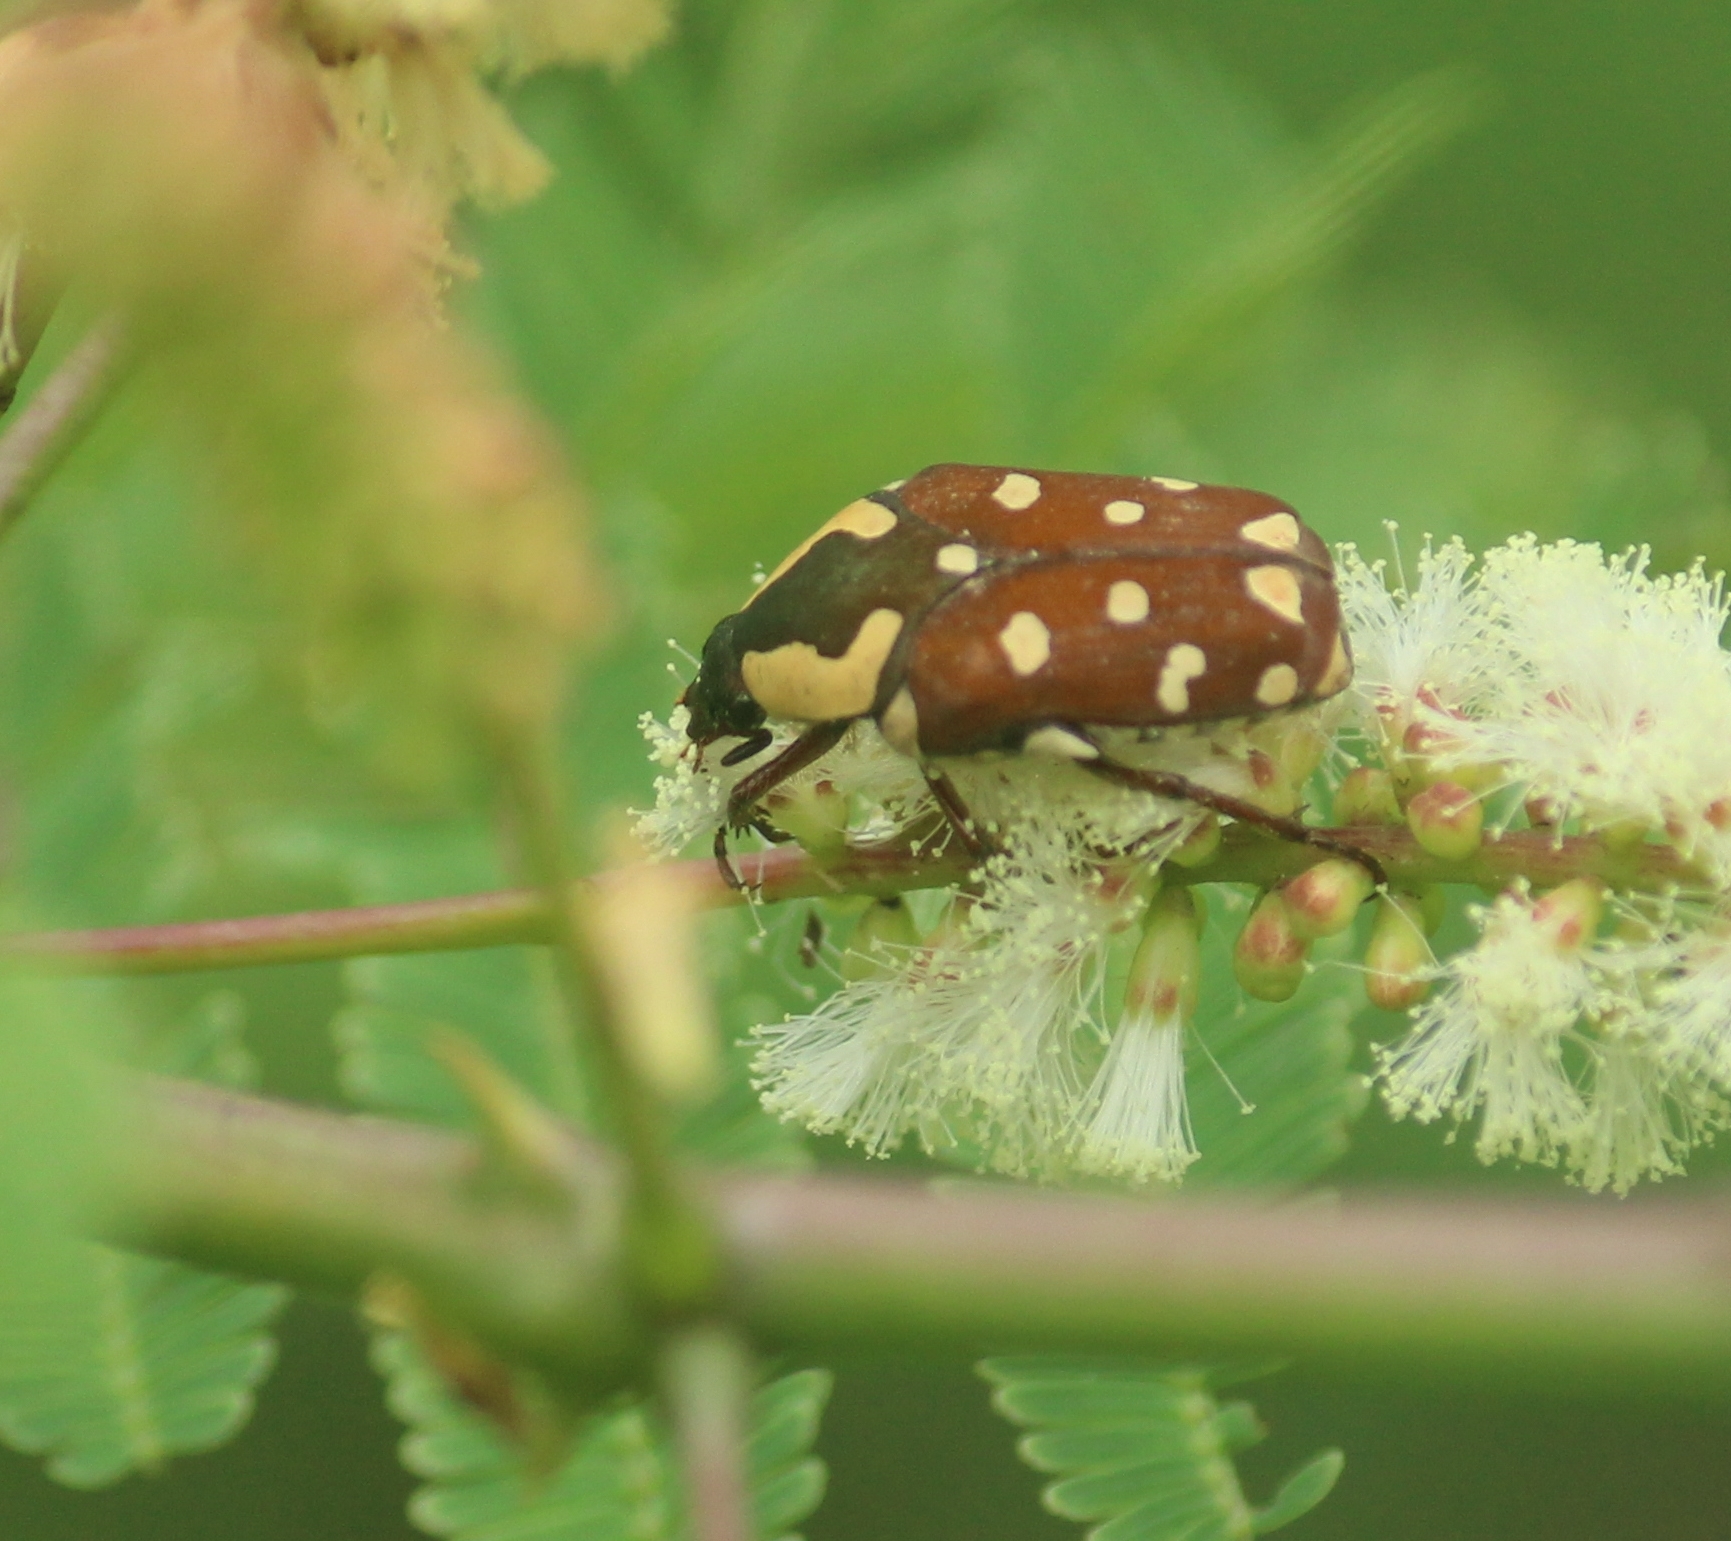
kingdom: Animalia
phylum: Arthropoda
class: Insecta
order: Coleoptera
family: Scarabaeidae
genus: Clinteria
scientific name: Clinteria klugi
